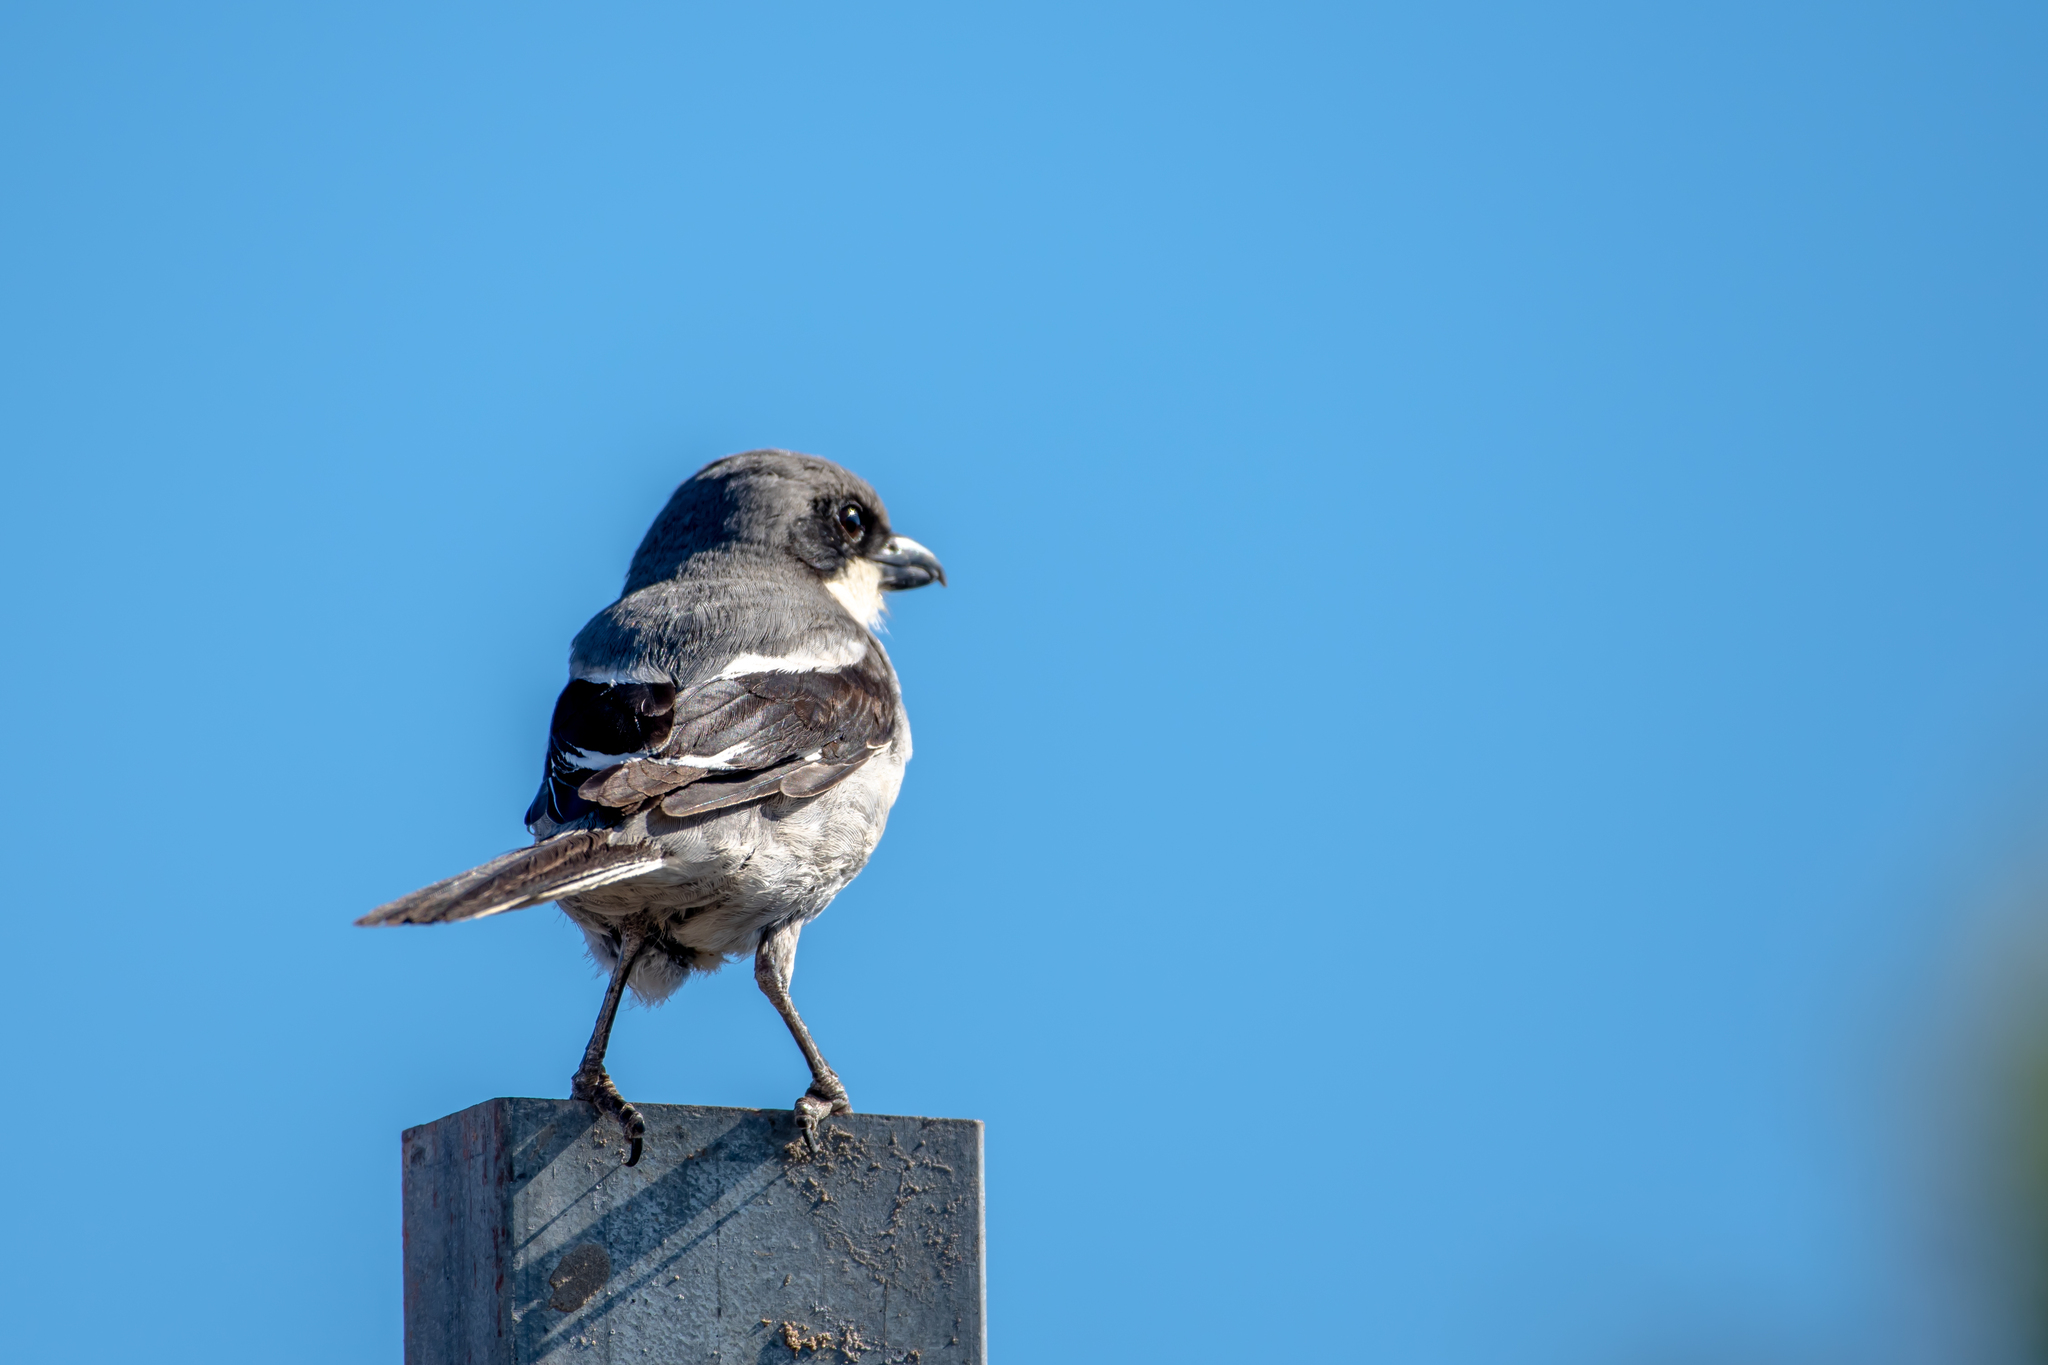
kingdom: Animalia
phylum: Chordata
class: Aves
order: Passeriformes
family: Laniidae
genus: Lanius
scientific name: Lanius excubitor
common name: Great grey shrike
